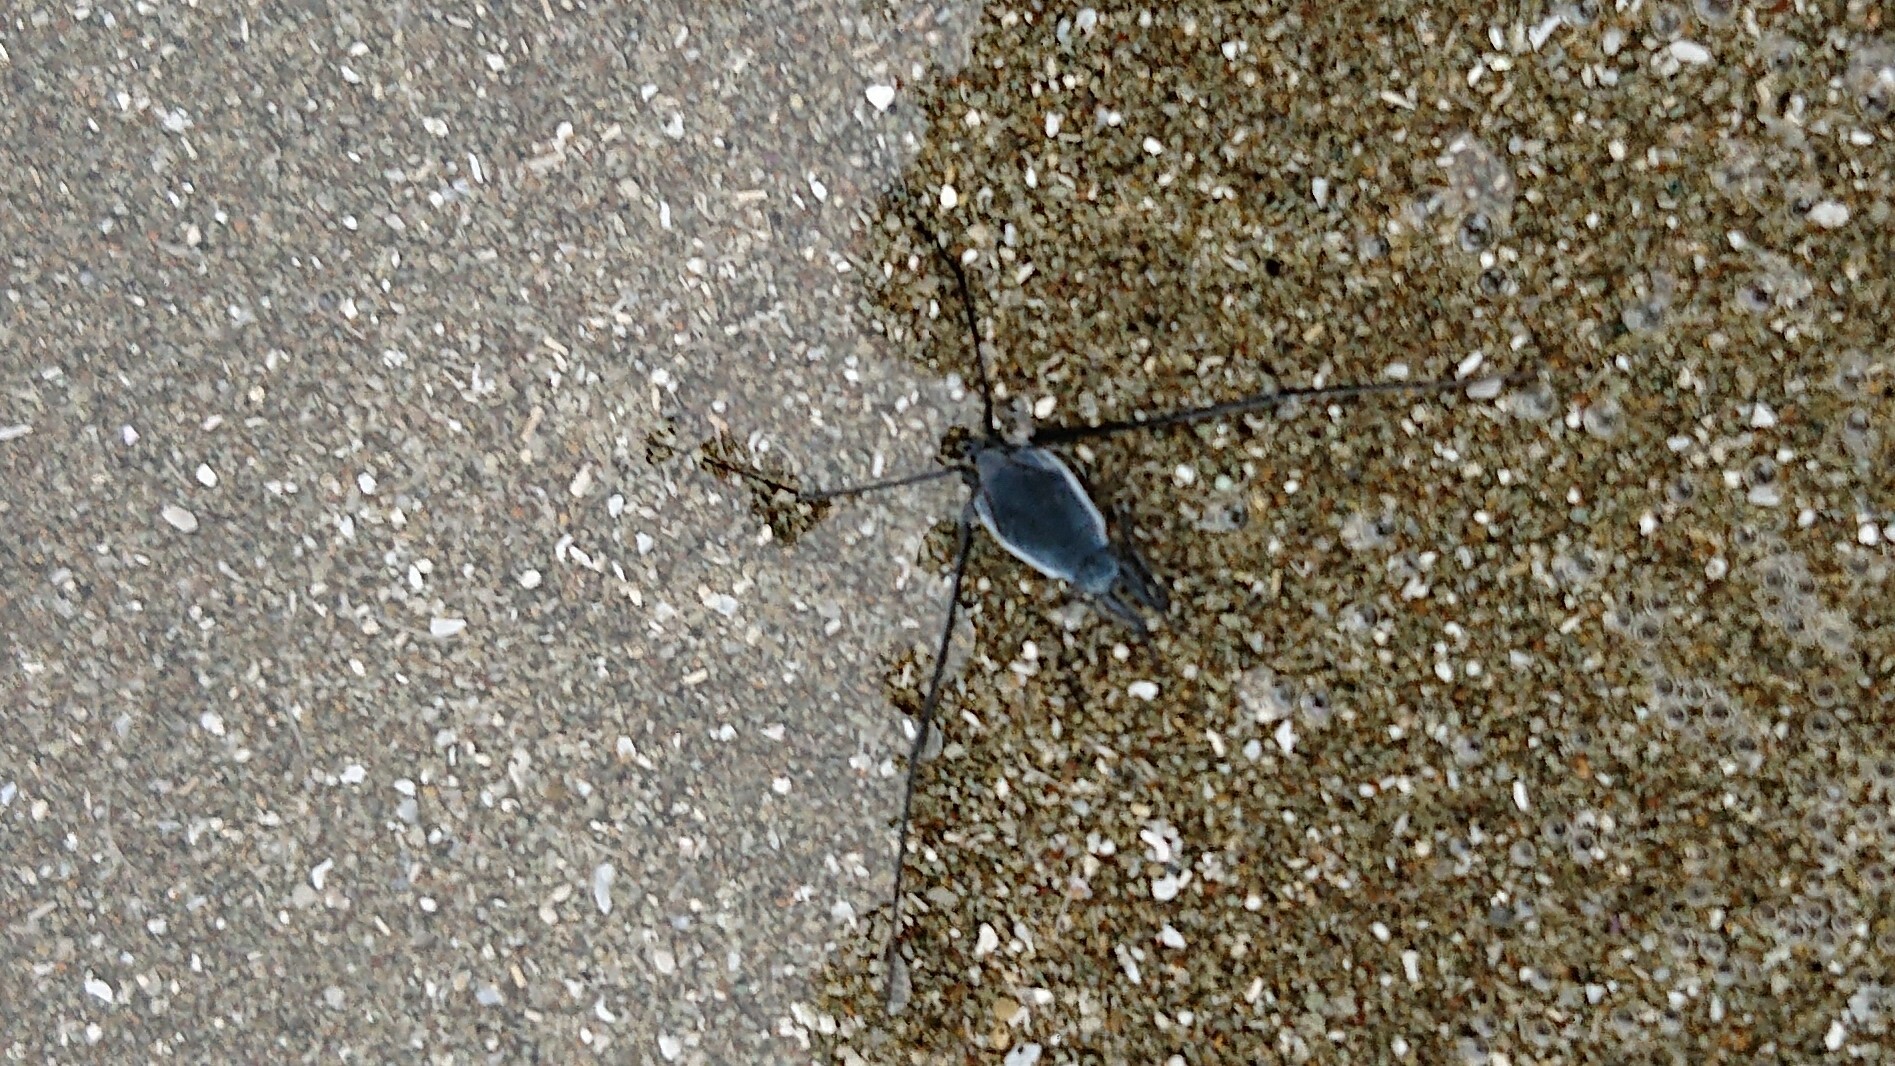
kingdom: Animalia
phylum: Arthropoda
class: Insecta
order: Hemiptera
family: Gerridae
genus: Halobates
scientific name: Halobates
